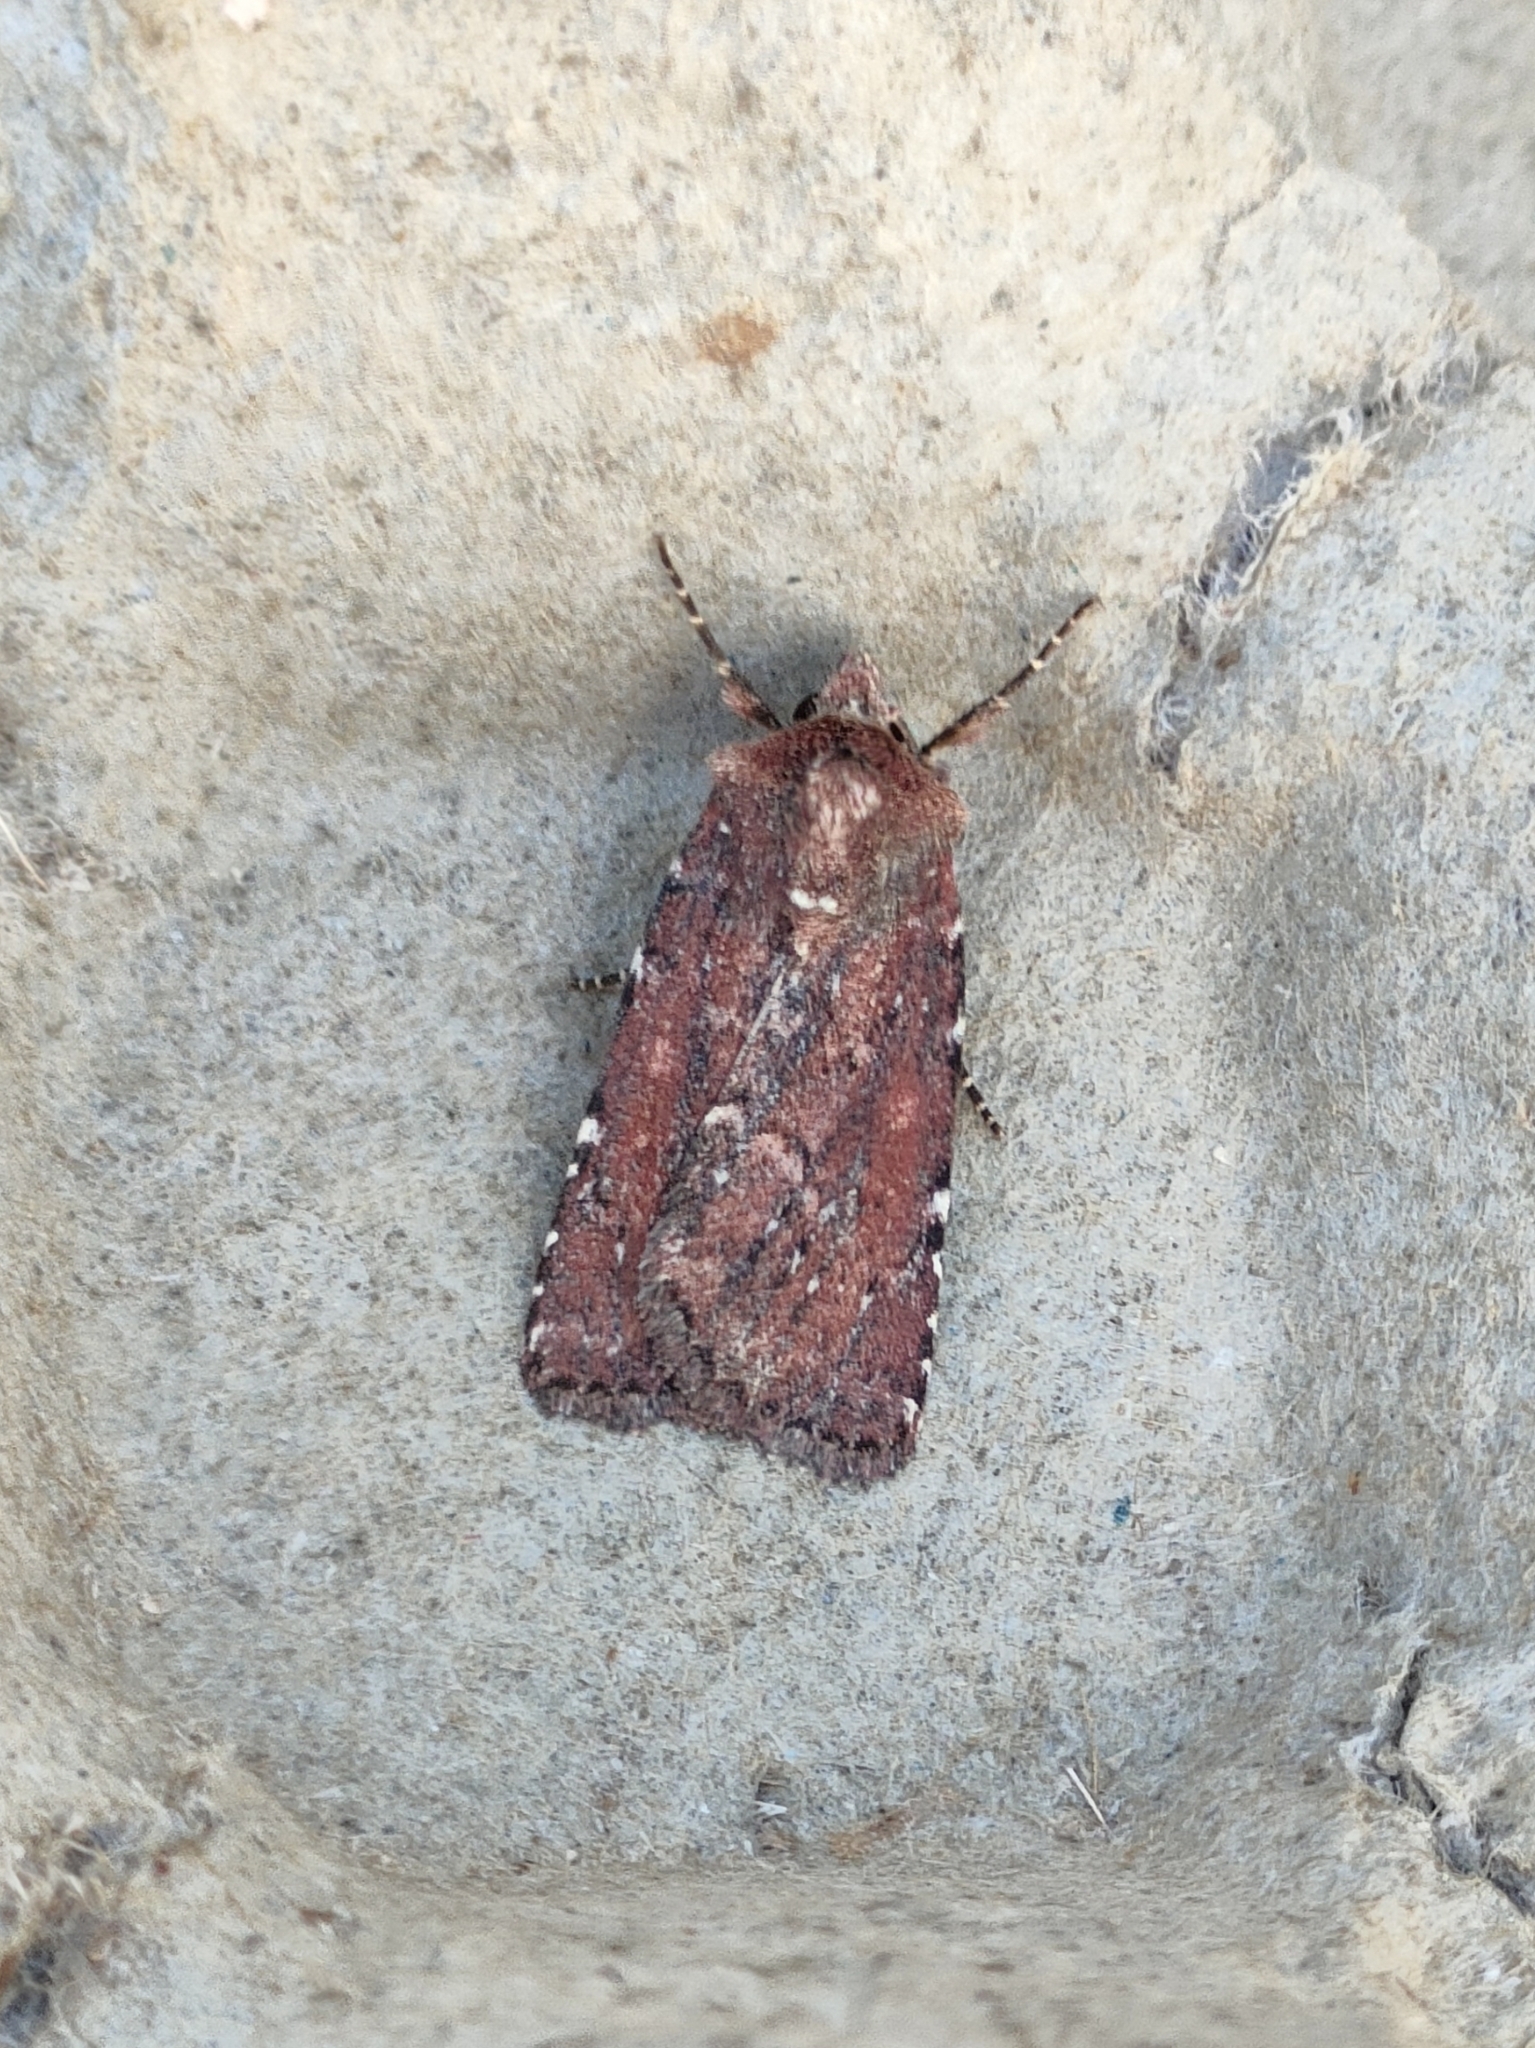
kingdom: Animalia
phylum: Arthropoda
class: Insecta
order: Lepidoptera
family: Noctuidae
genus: Lycophotia
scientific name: Lycophotia erythrina
